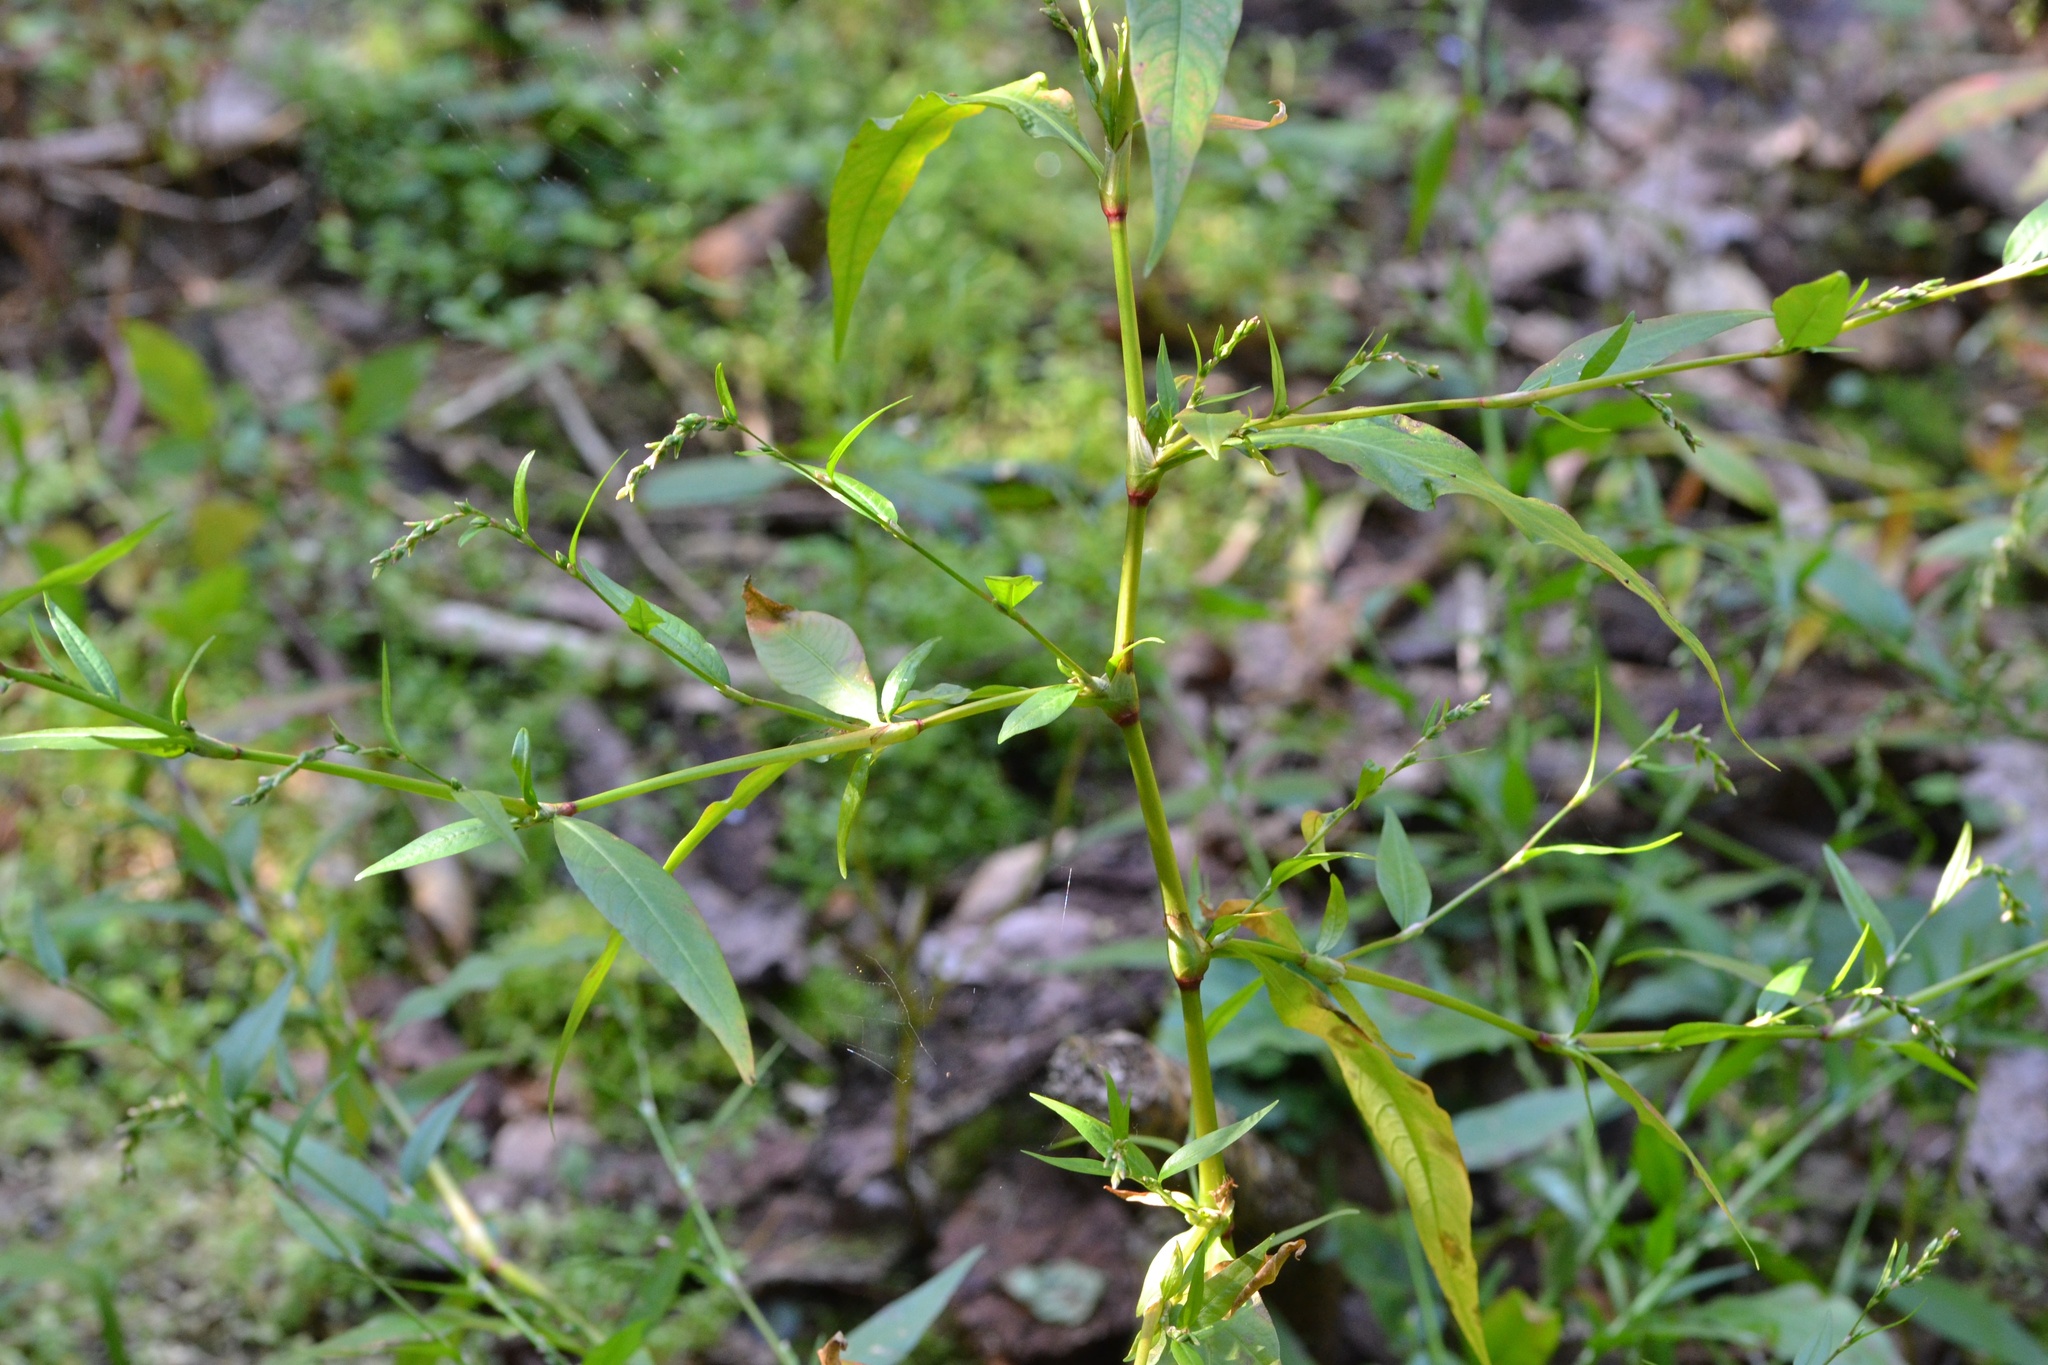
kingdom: Plantae
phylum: Tracheophyta
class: Magnoliopsida
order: Caryophyllales
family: Polygonaceae
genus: Persicaria
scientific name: Persicaria hydropiper
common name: Water-pepper
